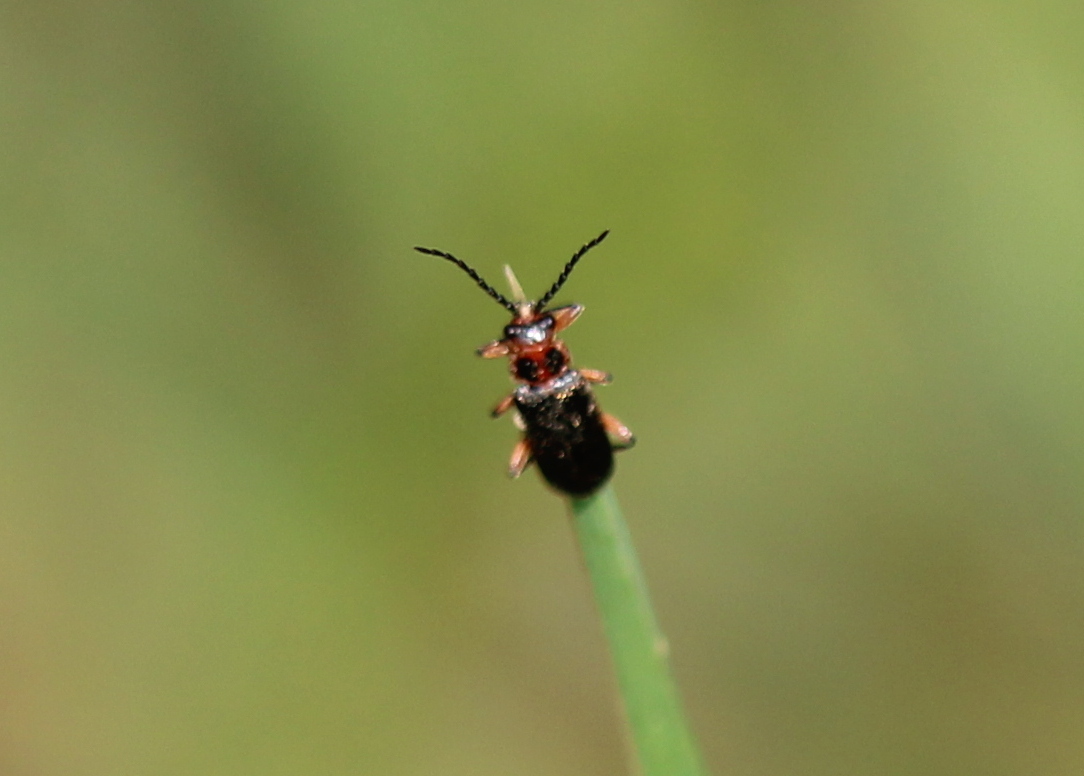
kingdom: Animalia
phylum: Arthropoda
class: Insecta
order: Coleoptera
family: Cantharidae
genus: Atalantycha
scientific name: Atalantycha bilineata
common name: Two-lined leatherwing
